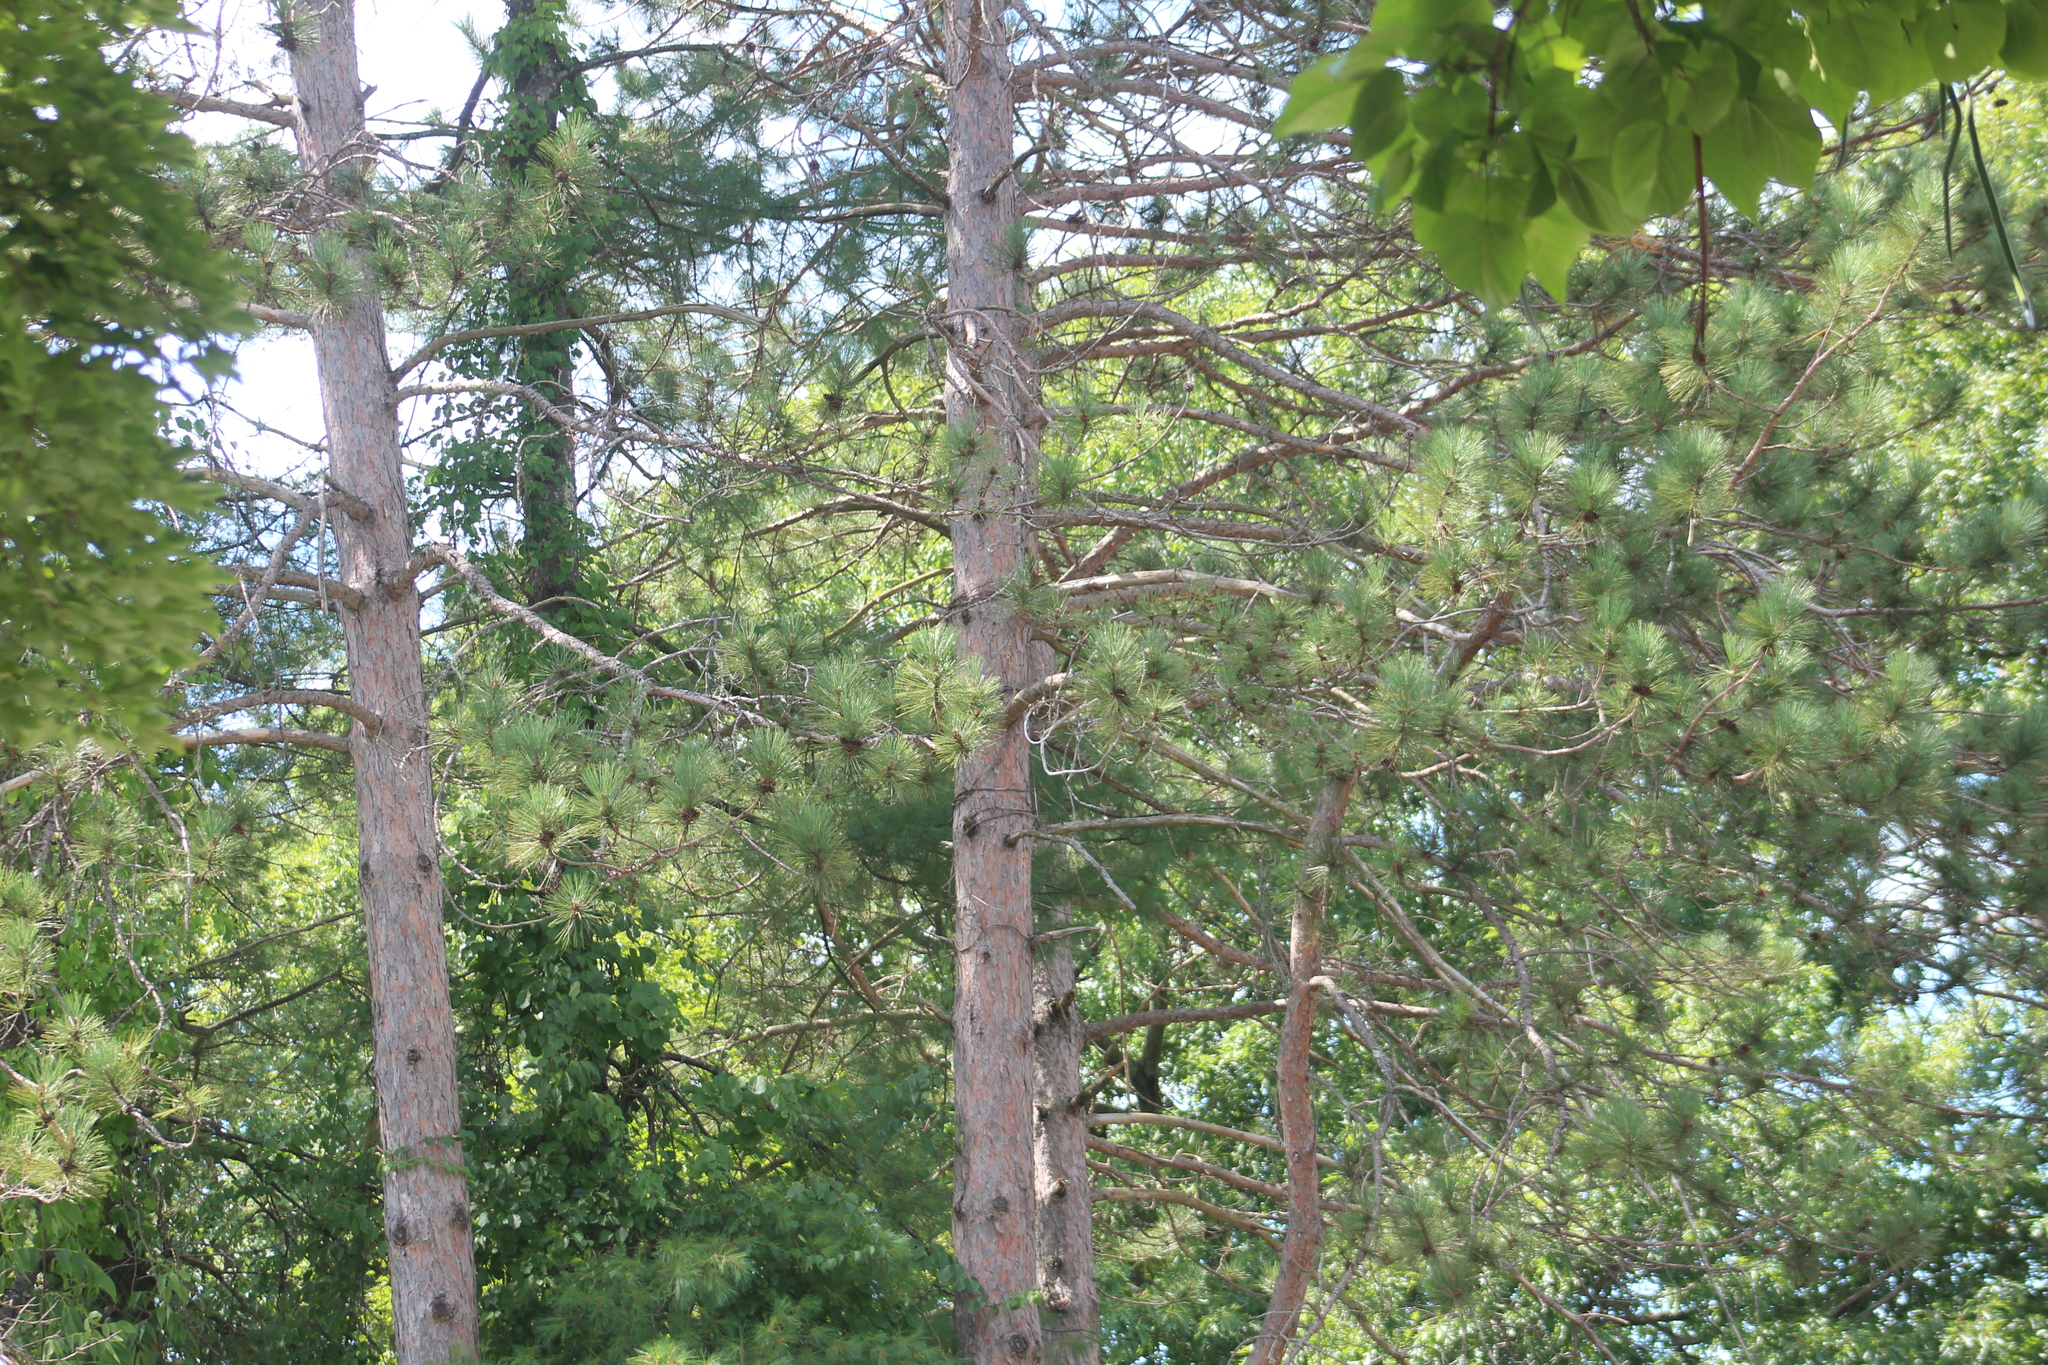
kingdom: Plantae
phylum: Tracheophyta
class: Pinopsida
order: Pinales
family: Pinaceae
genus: Pinus
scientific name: Pinus resinosa
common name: Norway pine
